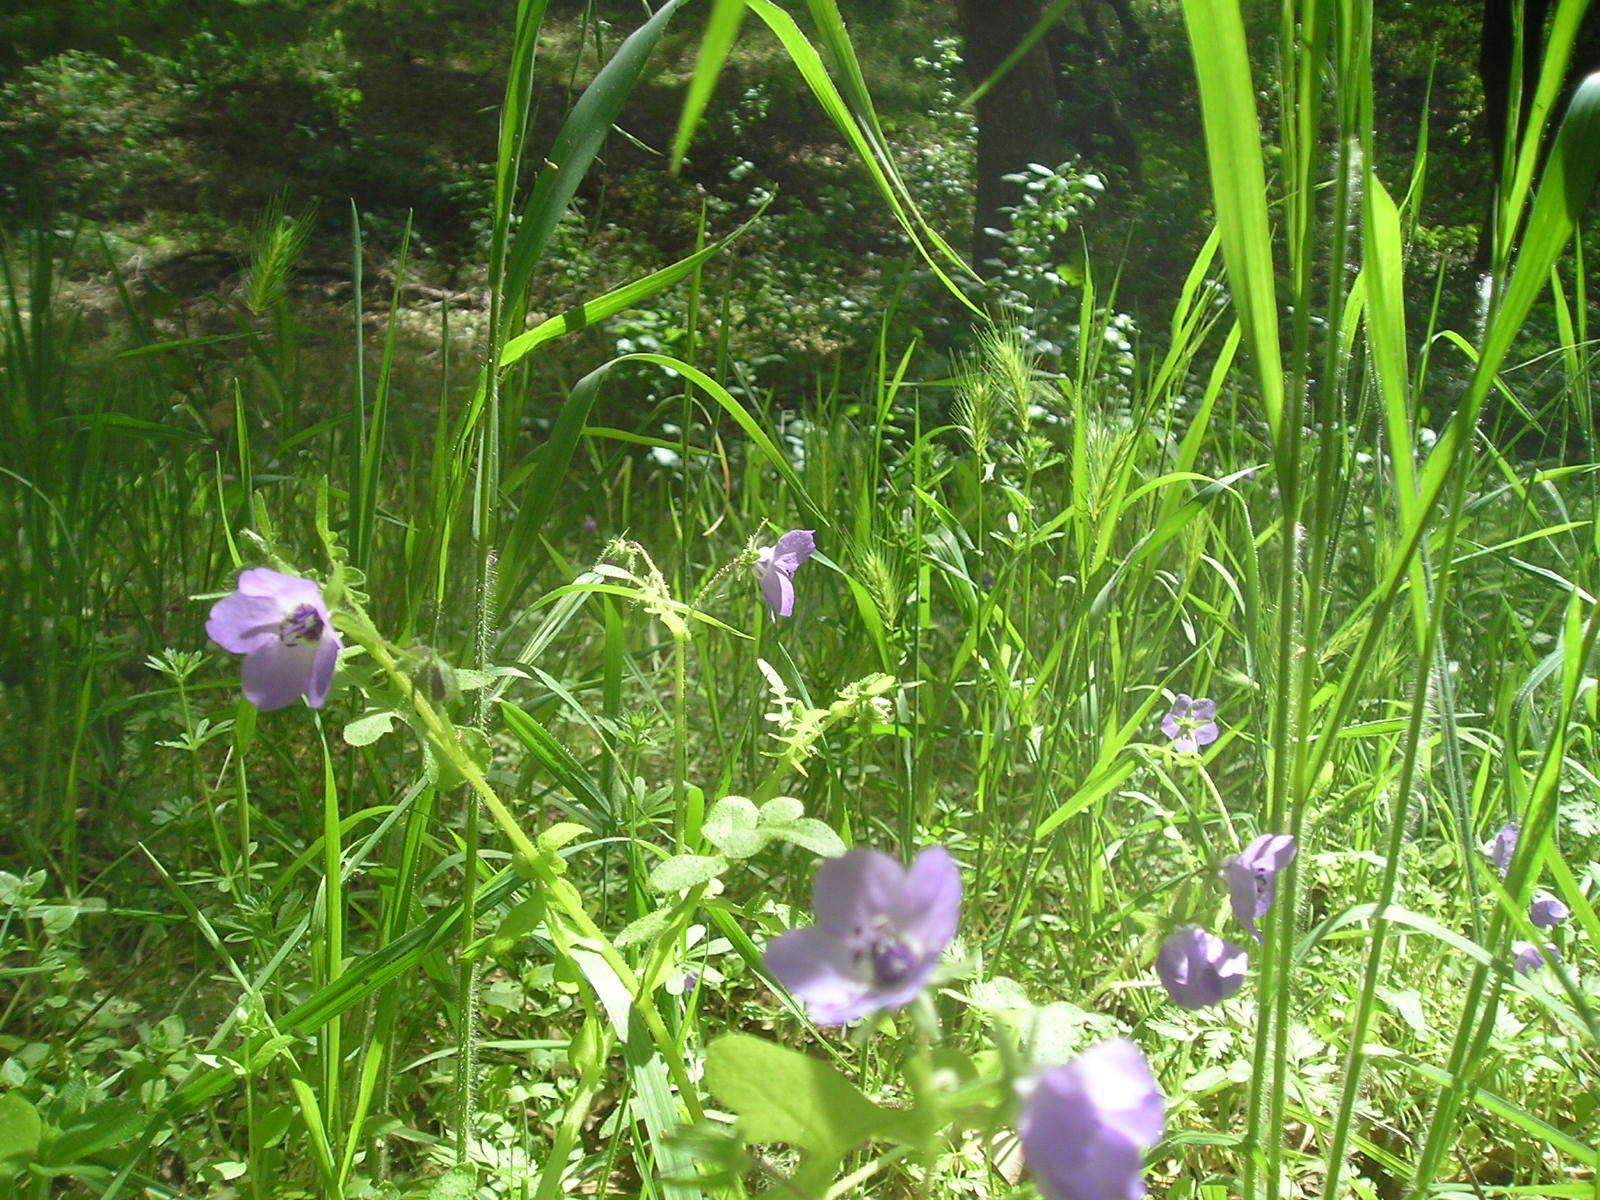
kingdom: Plantae
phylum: Tracheophyta
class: Magnoliopsida
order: Boraginales
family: Hydrophyllaceae
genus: Pholistoma
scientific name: Pholistoma auritum
